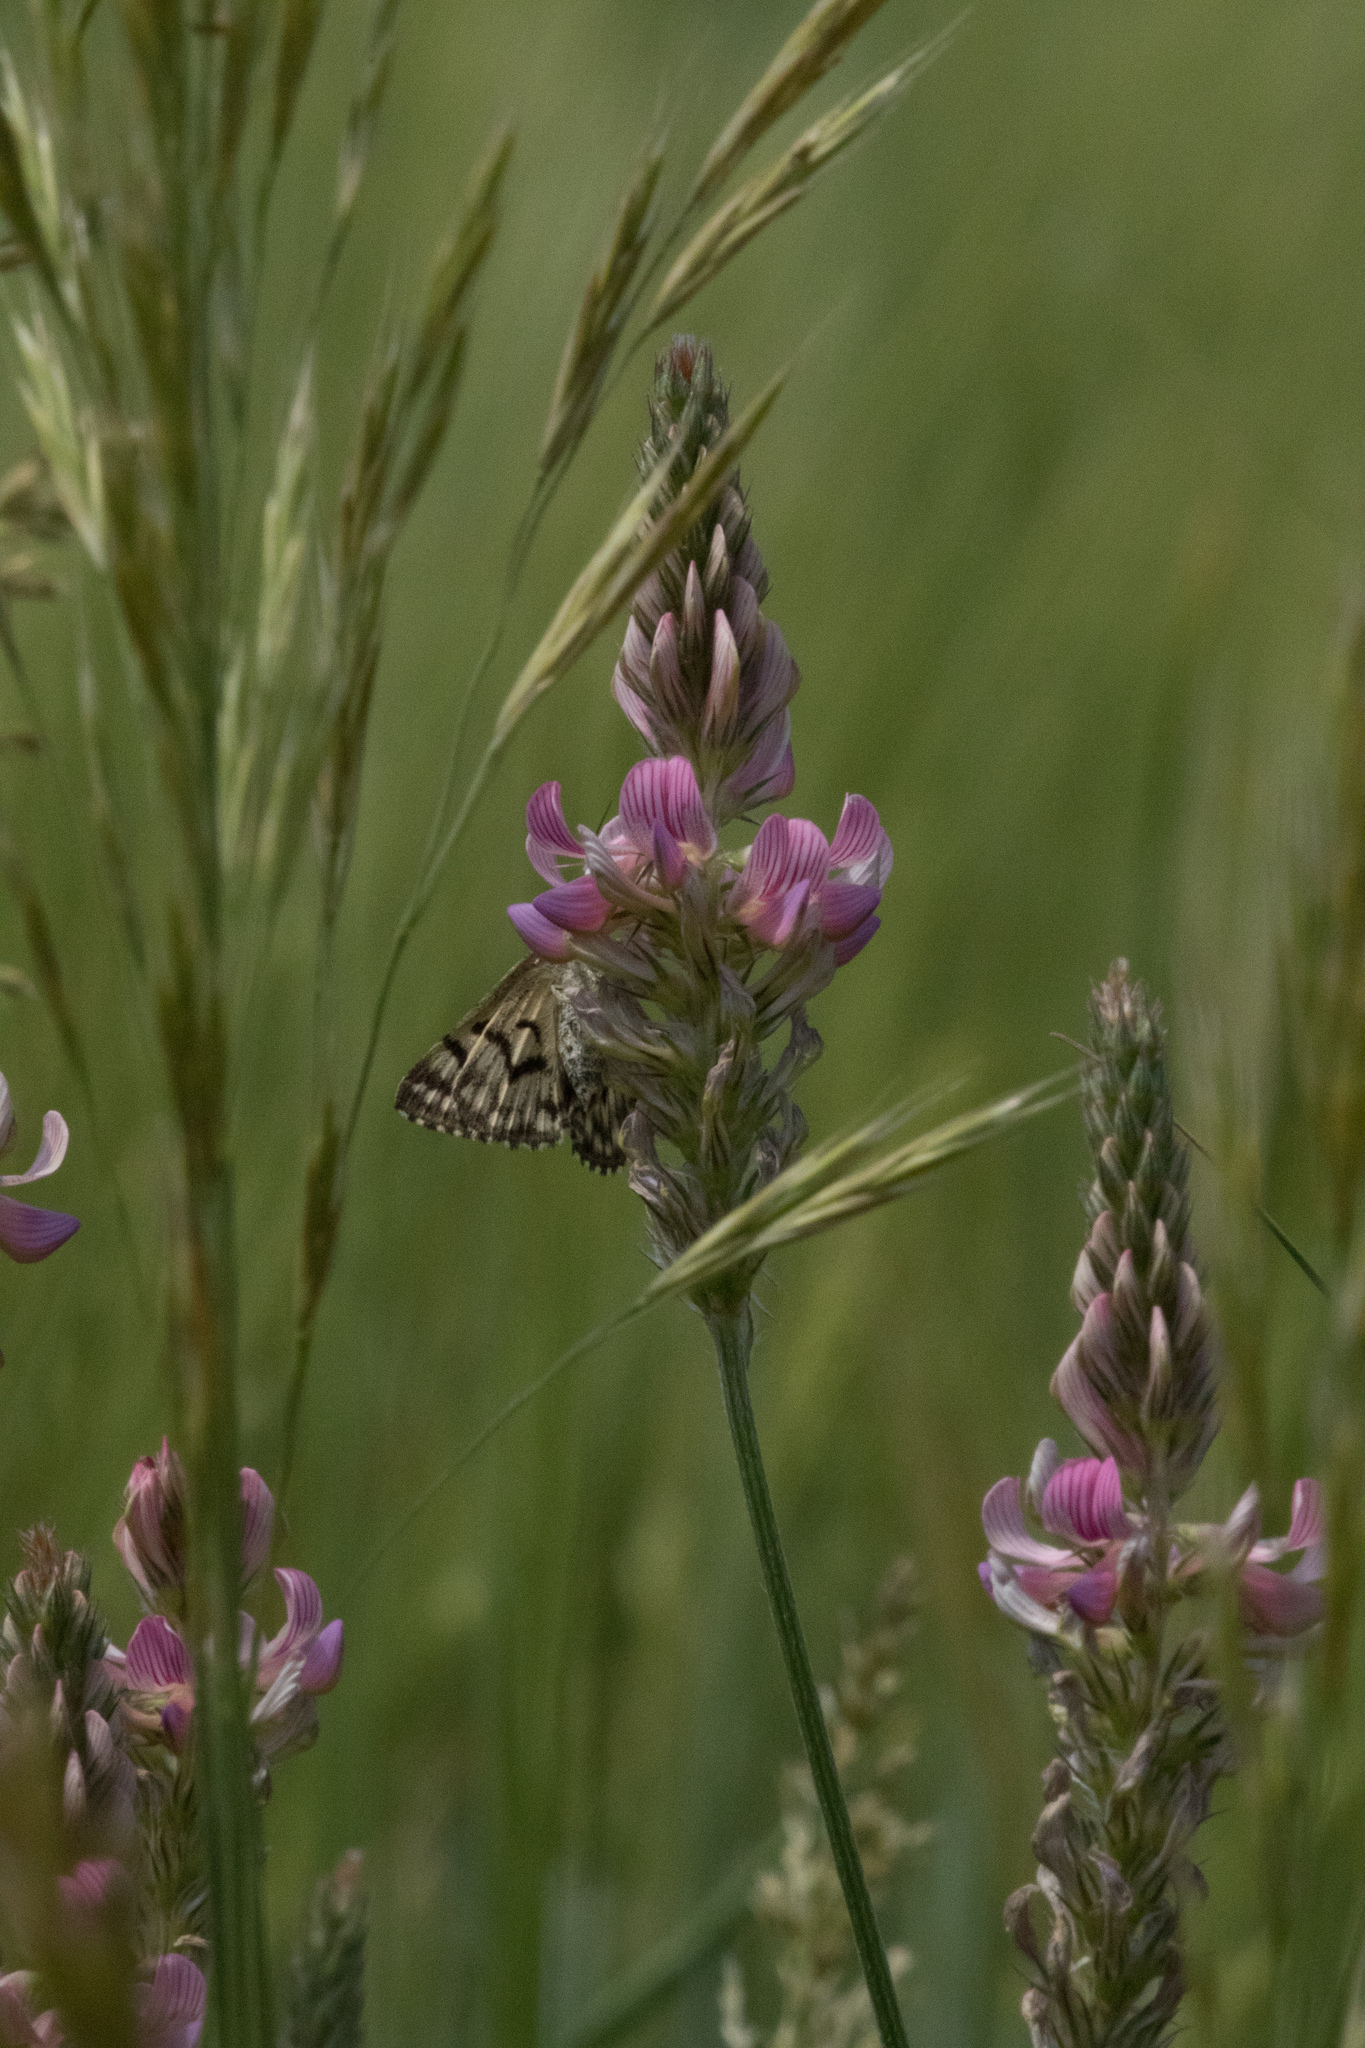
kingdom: Plantae
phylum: Tracheophyta
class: Magnoliopsida
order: Fabales
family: Fabaceae
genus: Onobrychis
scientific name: Onobrychis viciifolia
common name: Sainfoin
